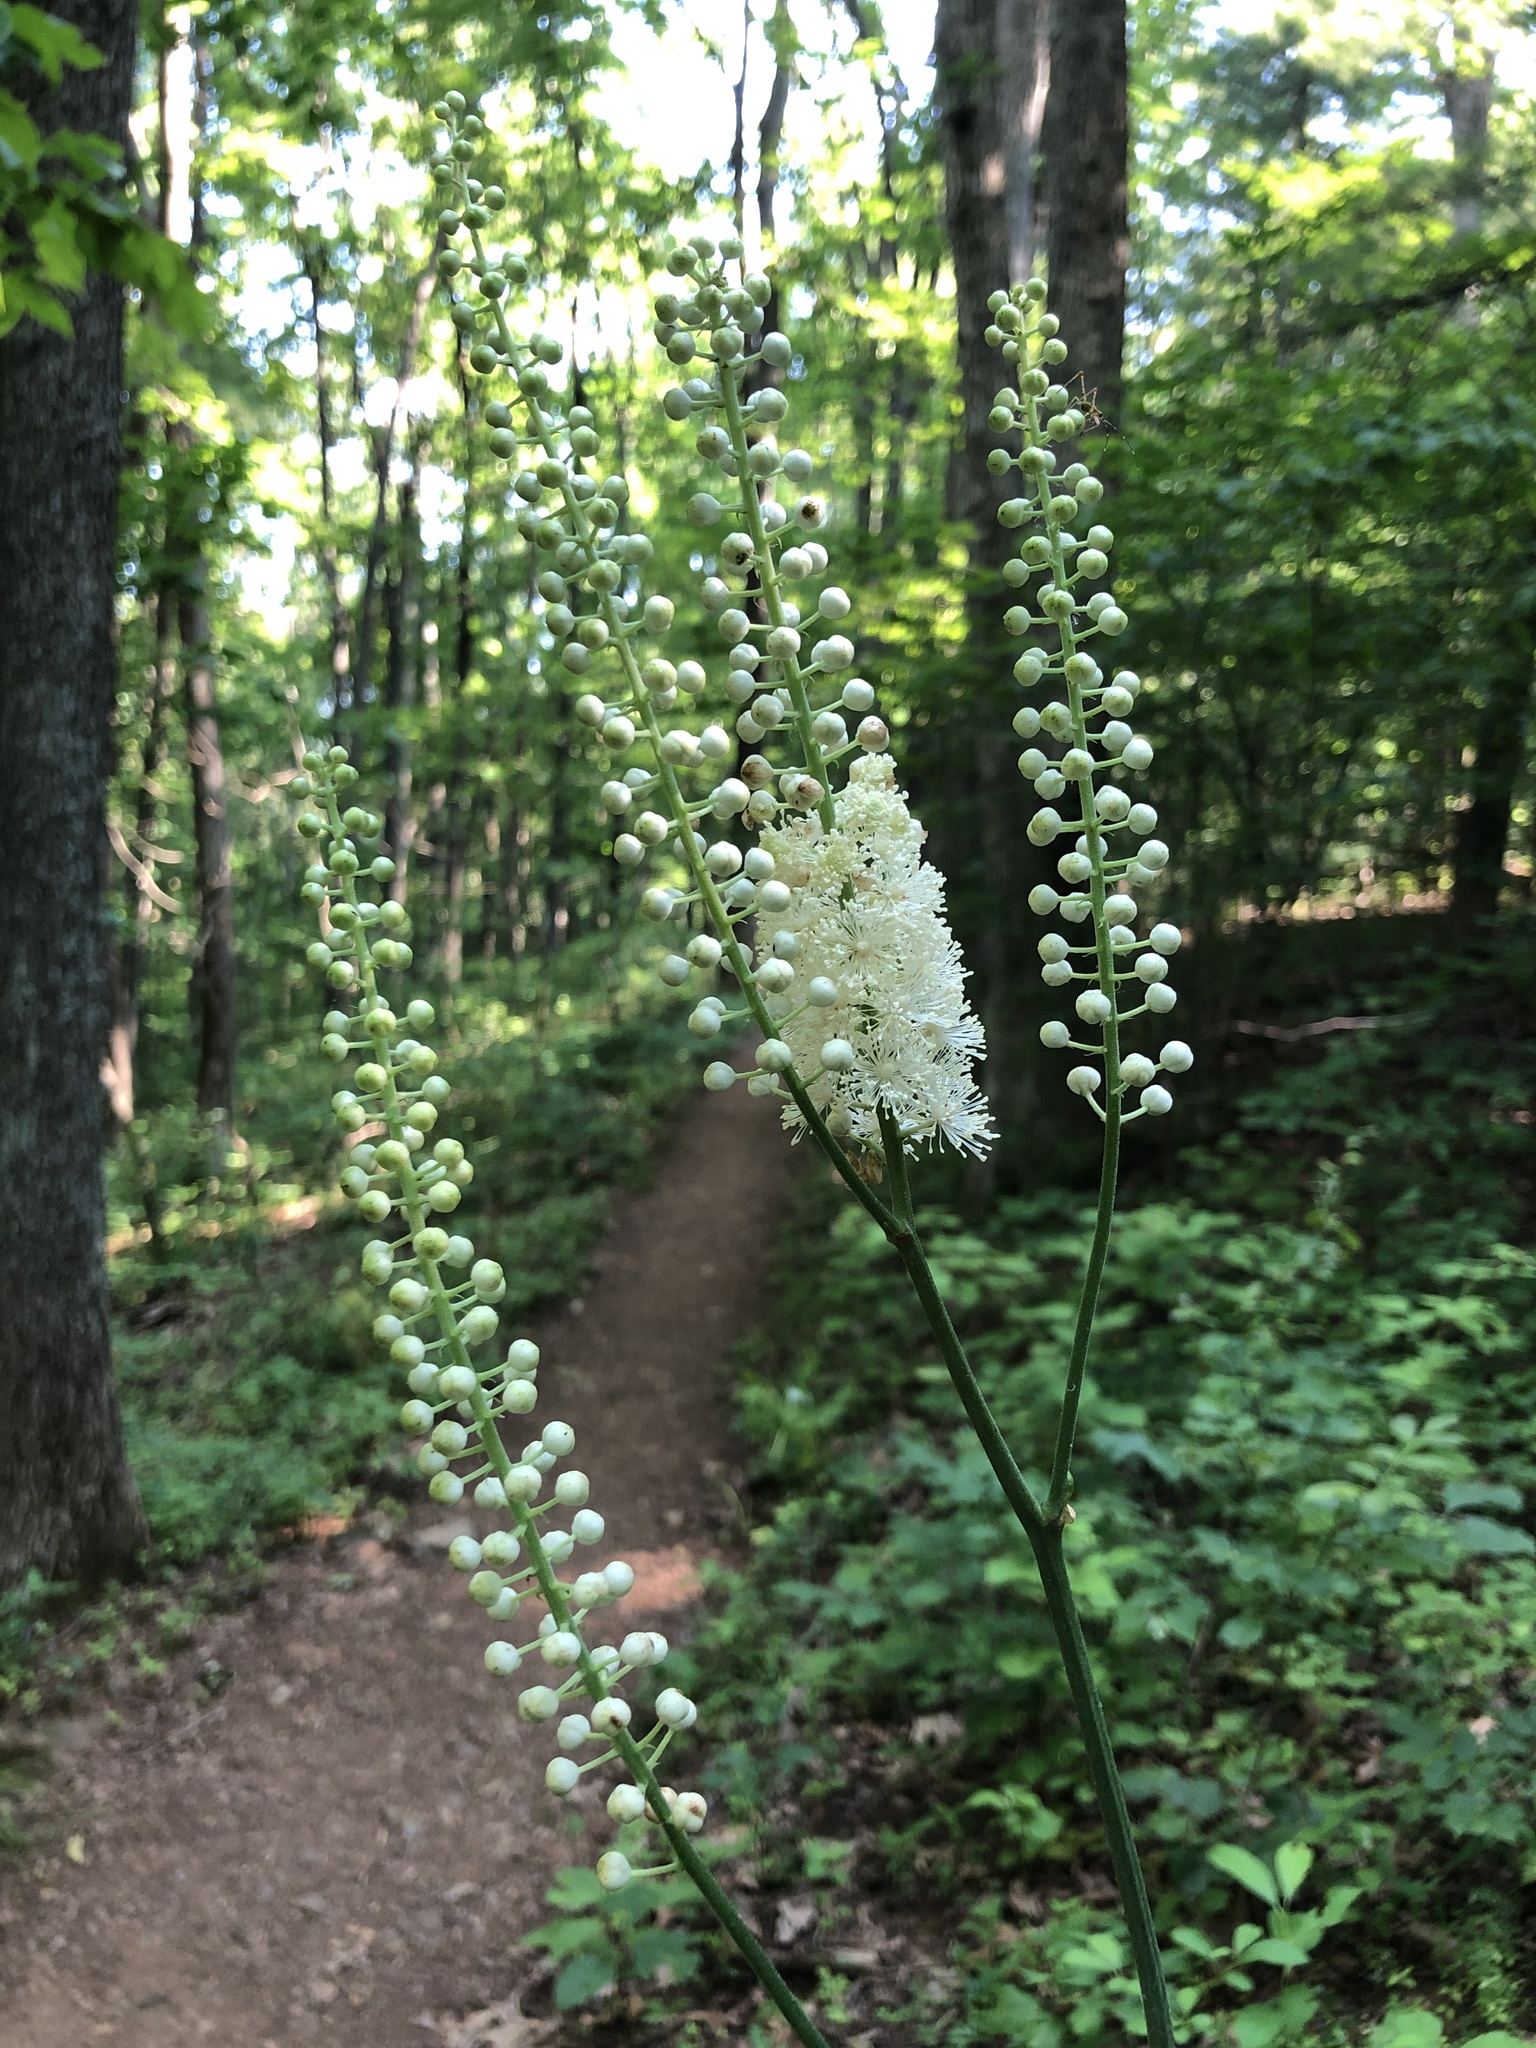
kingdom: Plantae
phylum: Tracheophyta
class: Magnoliopsida
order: Ranunculales
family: Ranunculaceae
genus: Actaea
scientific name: Actaea racemosa
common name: Black cohosh
